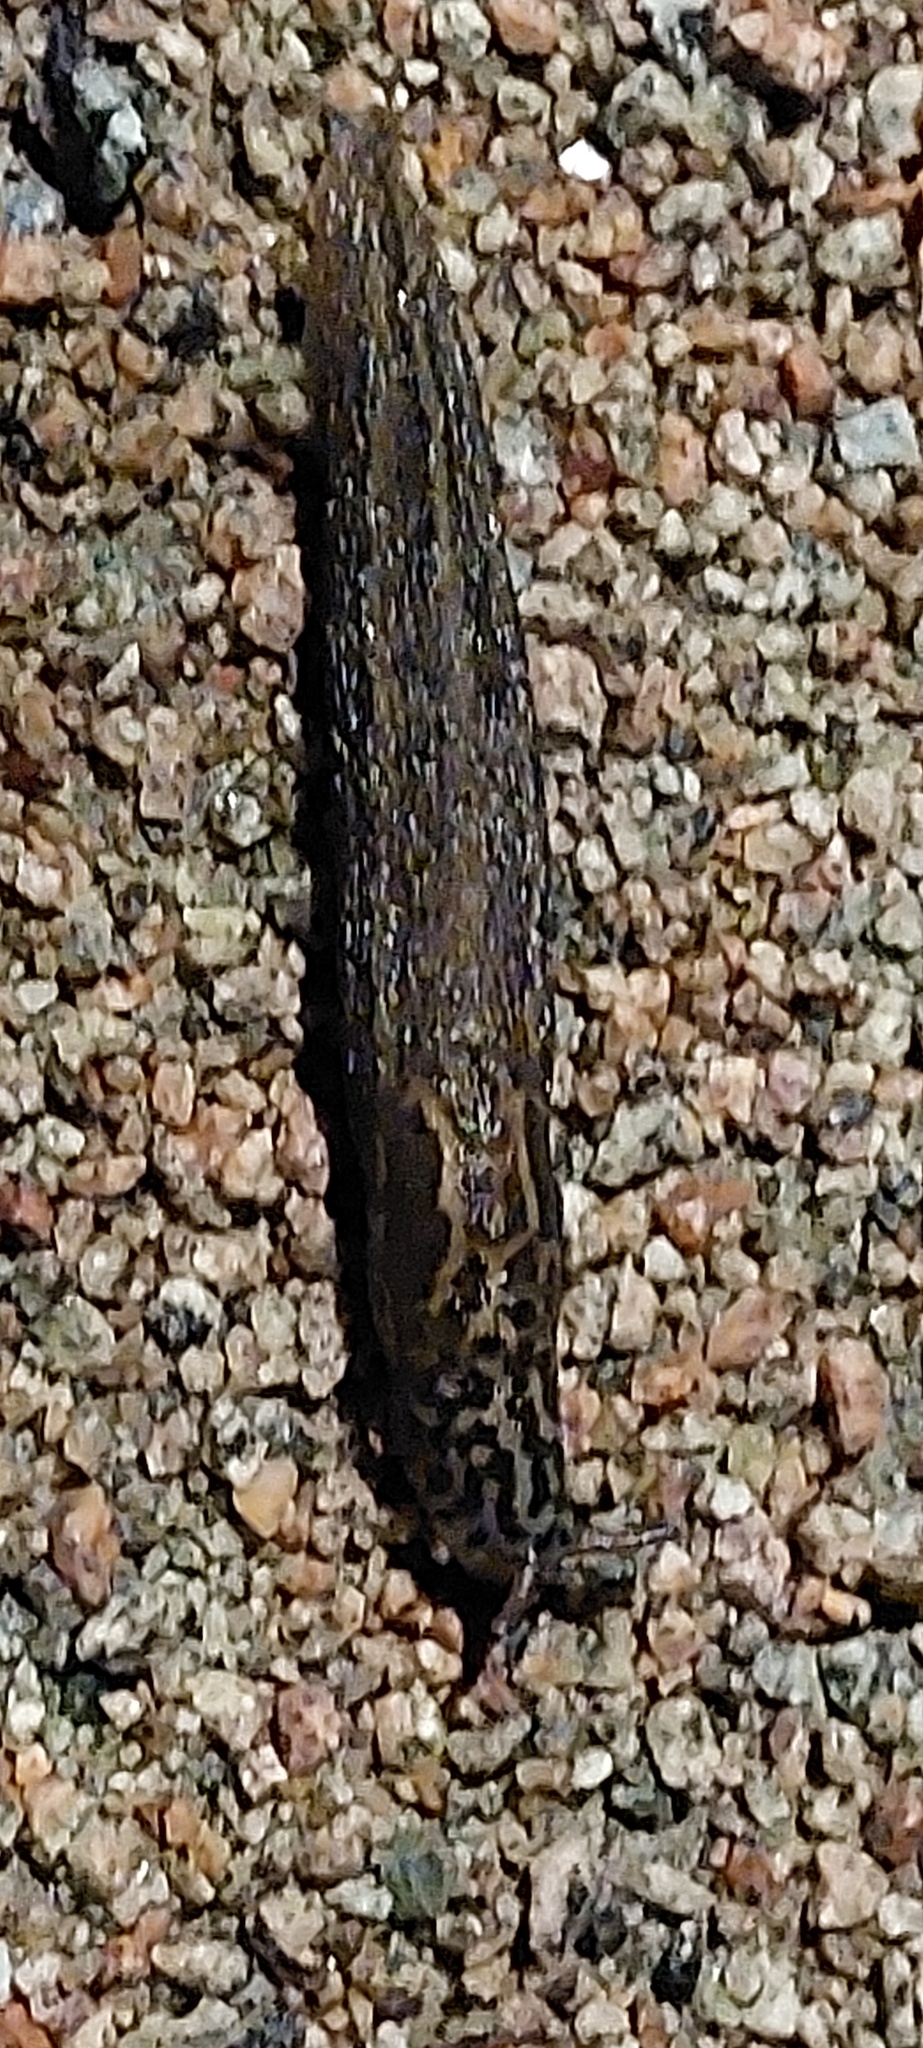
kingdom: Animalia
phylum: Mollusca
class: Gastropoda
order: Stylommatophora
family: Limacidae
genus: Limax
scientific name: Limax maximus
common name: Great grey slug
